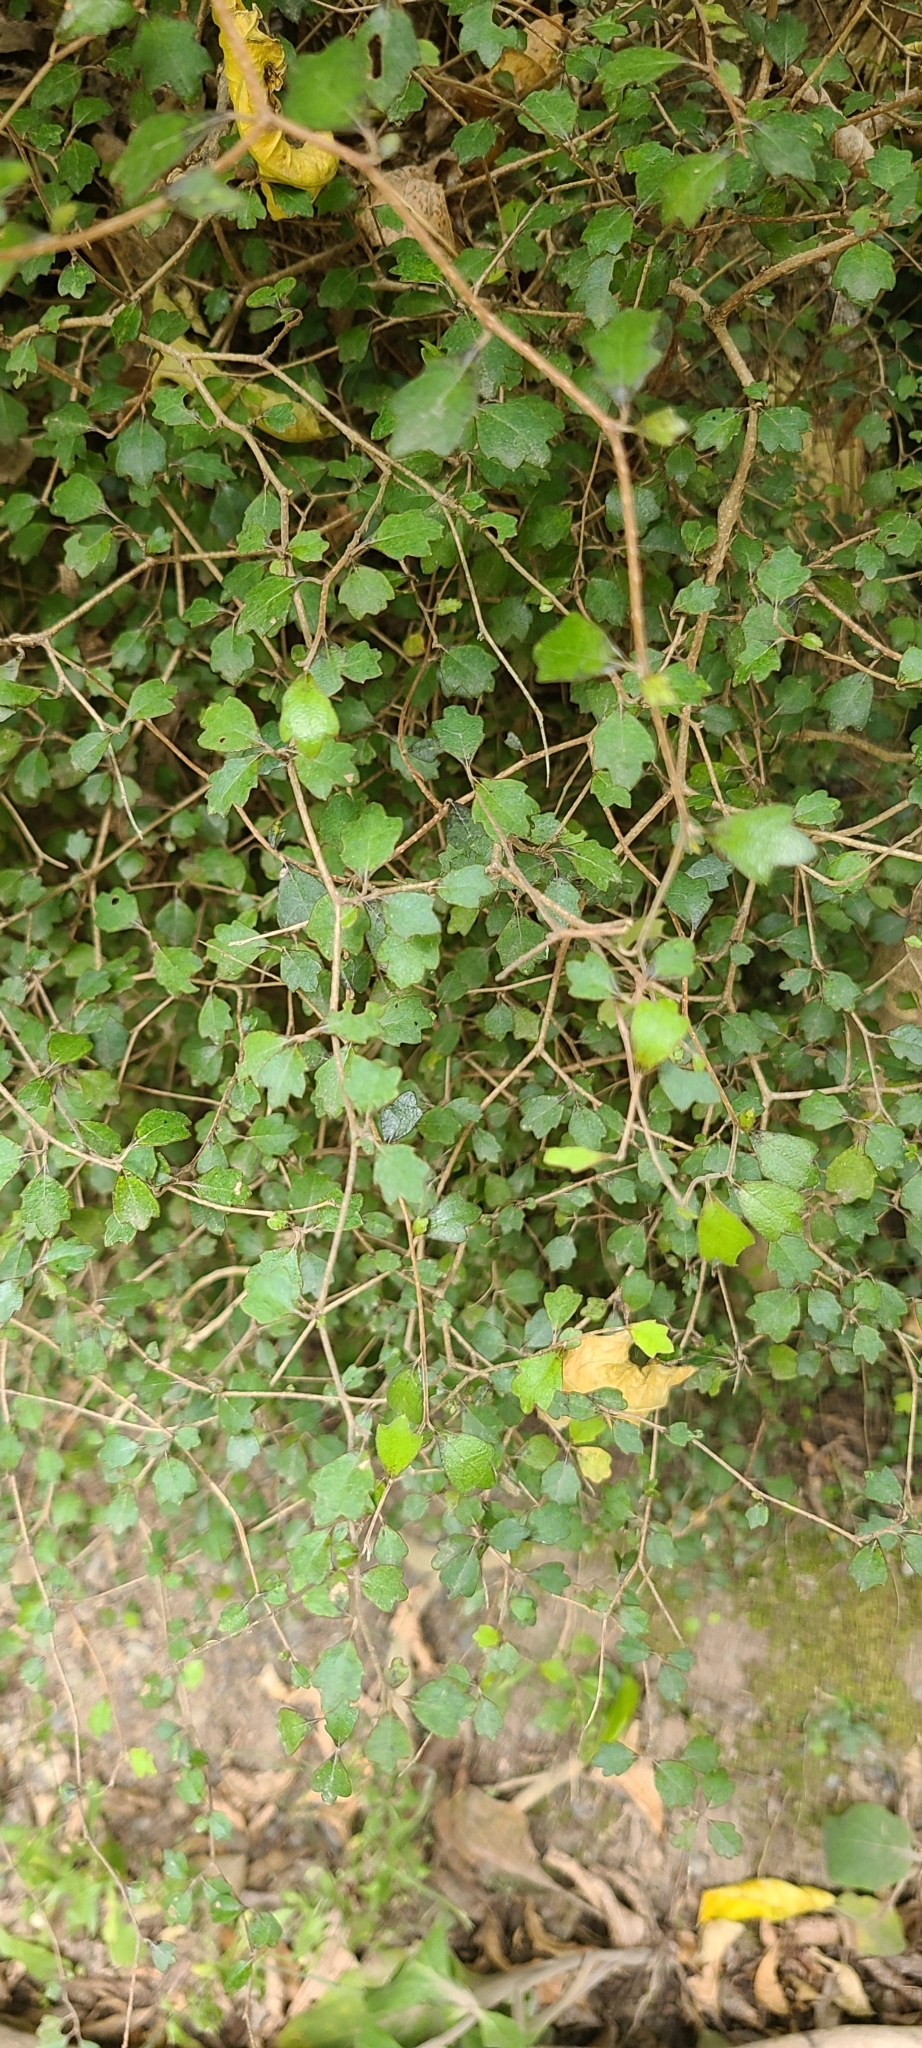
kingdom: Plantae
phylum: Tracheophyta
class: Magnoliopsida
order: Apiales
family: Pennantiaceae
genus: Pennantia
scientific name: Pennantia corymbosa
